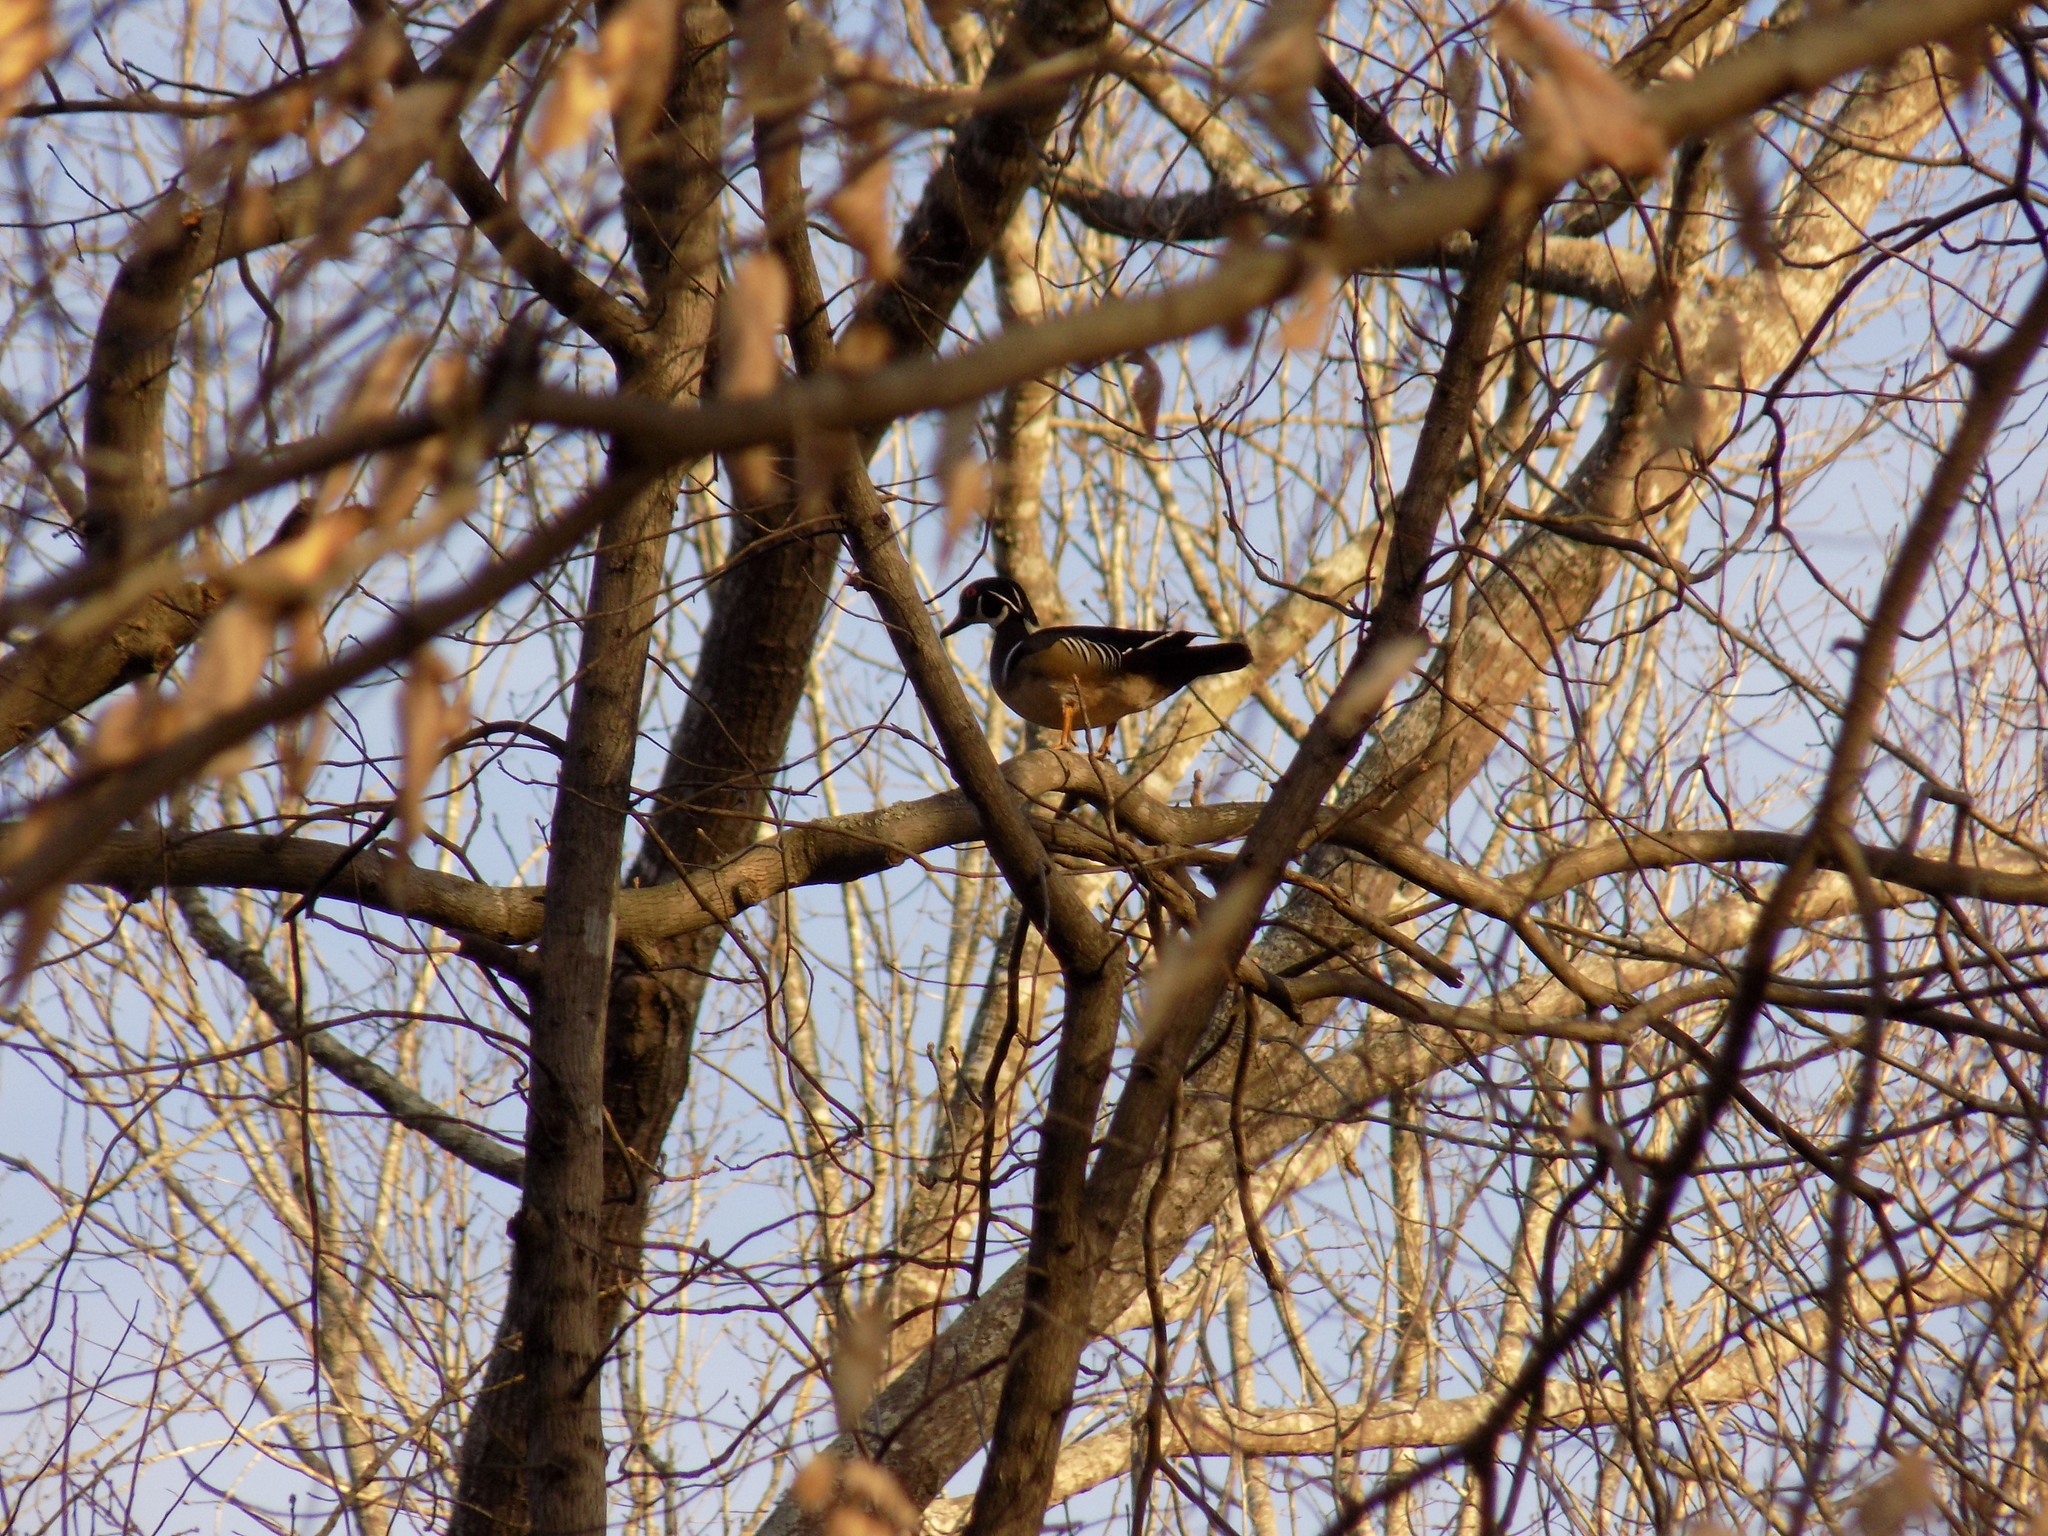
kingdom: Animalia
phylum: Chordata
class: Aves
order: Anseriformes
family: Anatidae
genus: Aix
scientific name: Aix sponsa
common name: Wood duck
